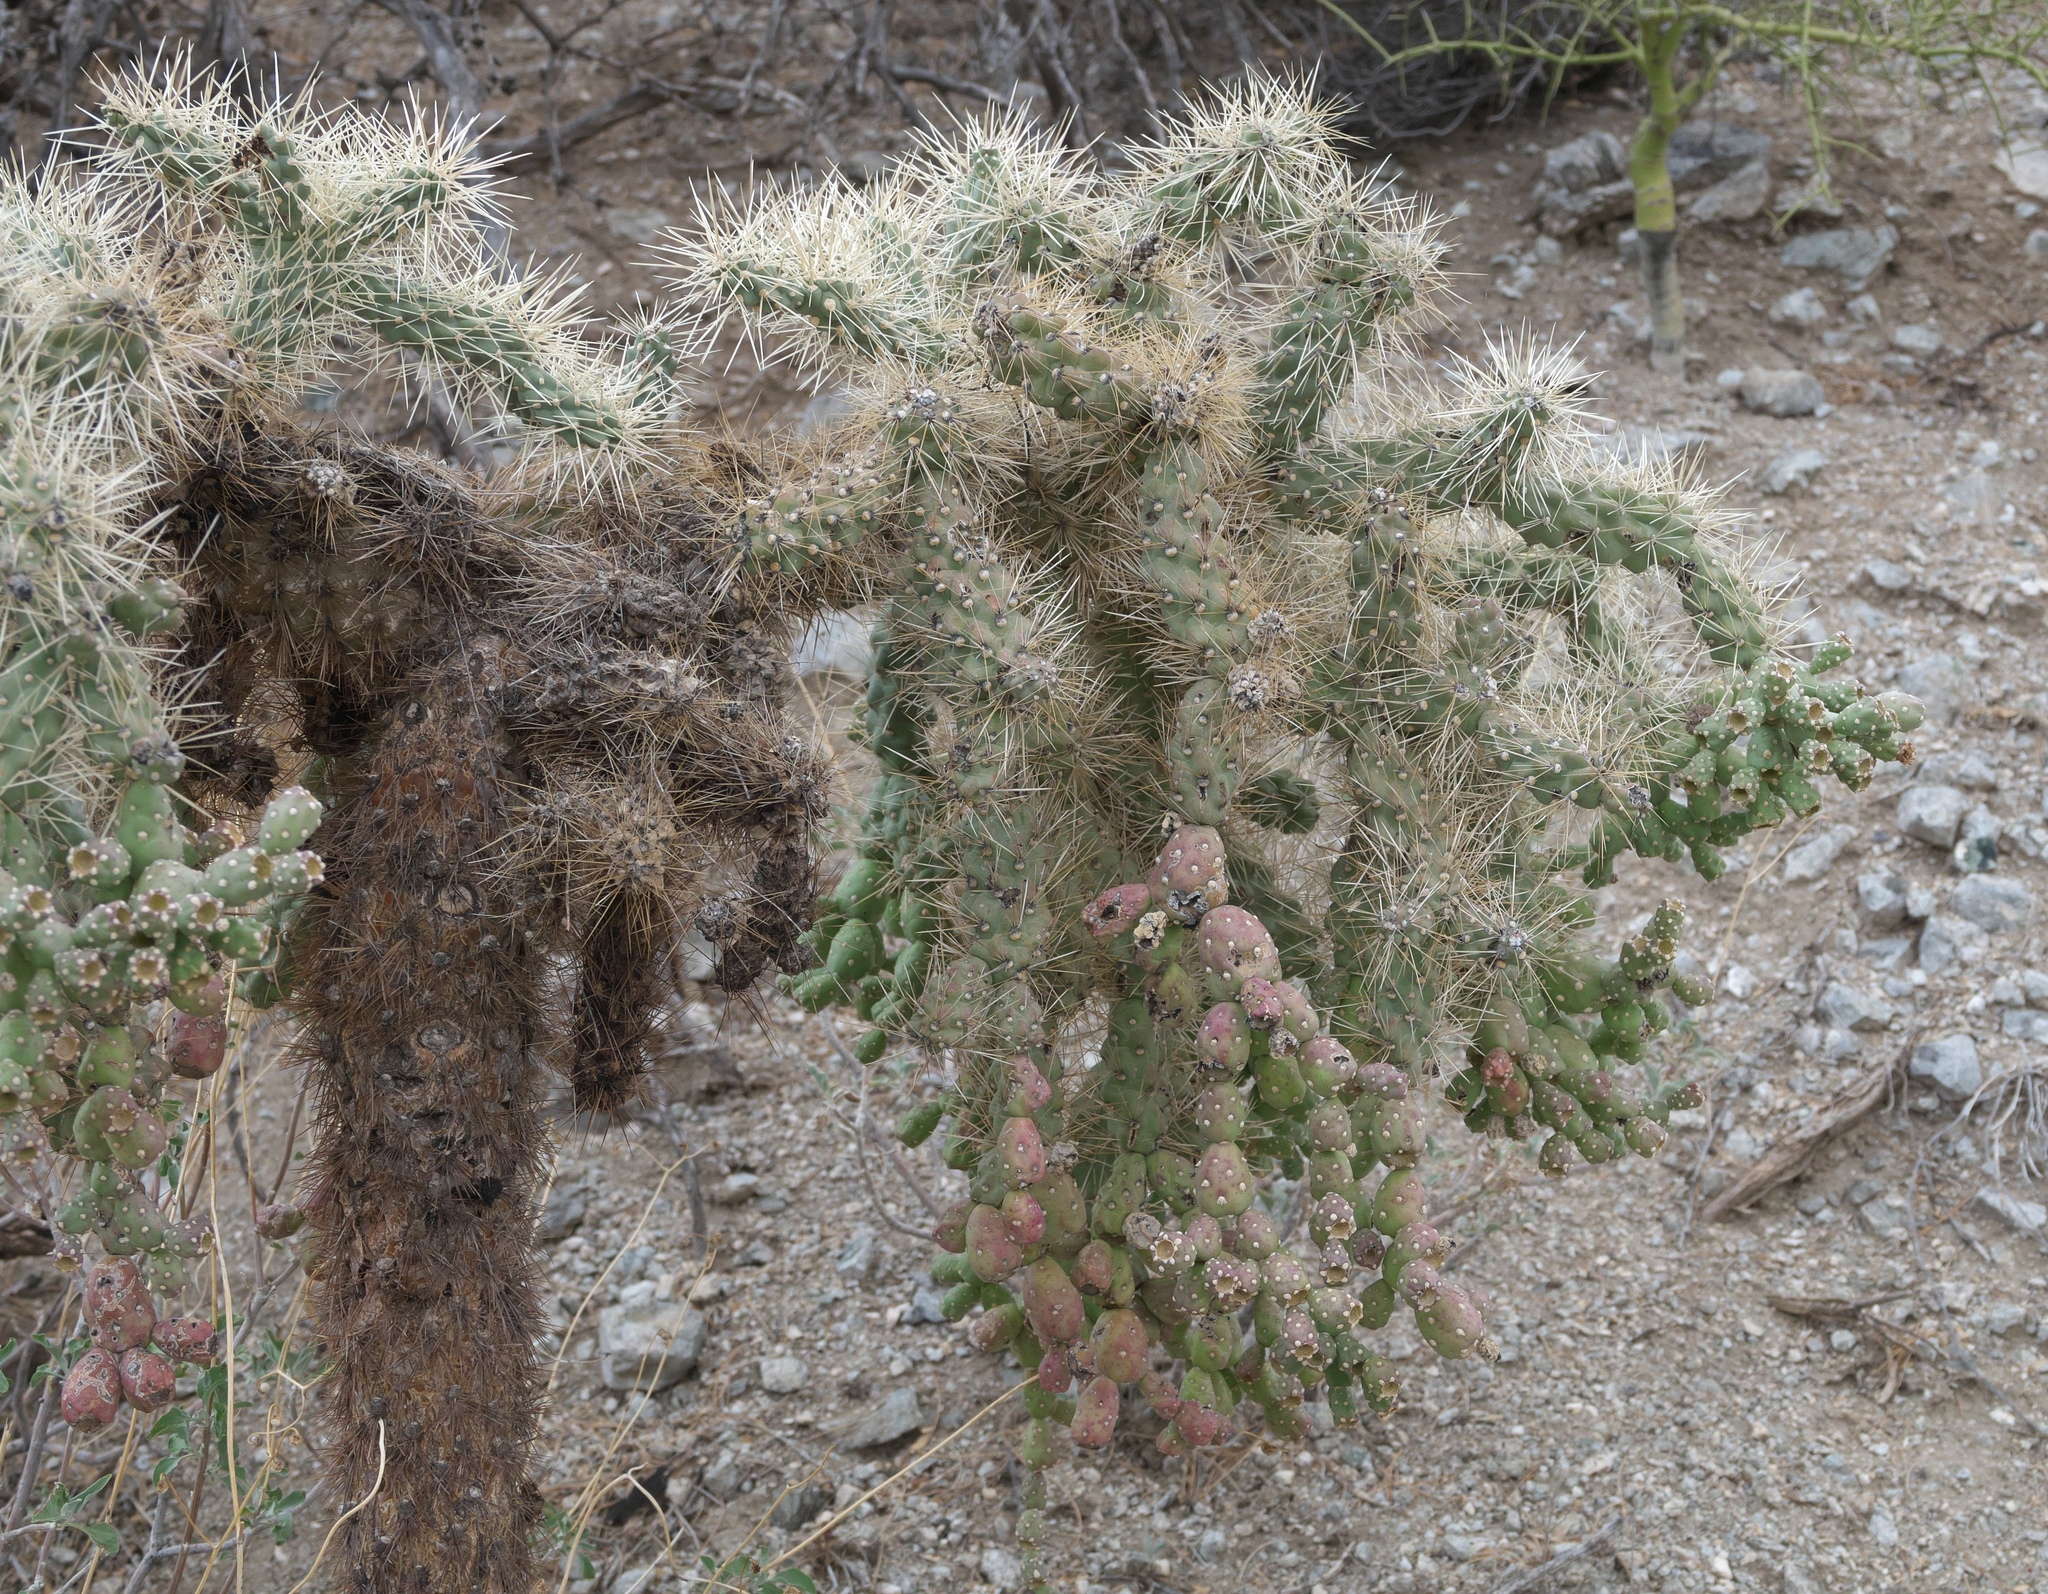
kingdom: Plantae
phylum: Tracheophyta
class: Magnoliopsida
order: Caryophyllales
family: Cactaceae
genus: Cylindropuntia
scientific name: Cylindropuntia fulgida
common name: Jumping cholla
